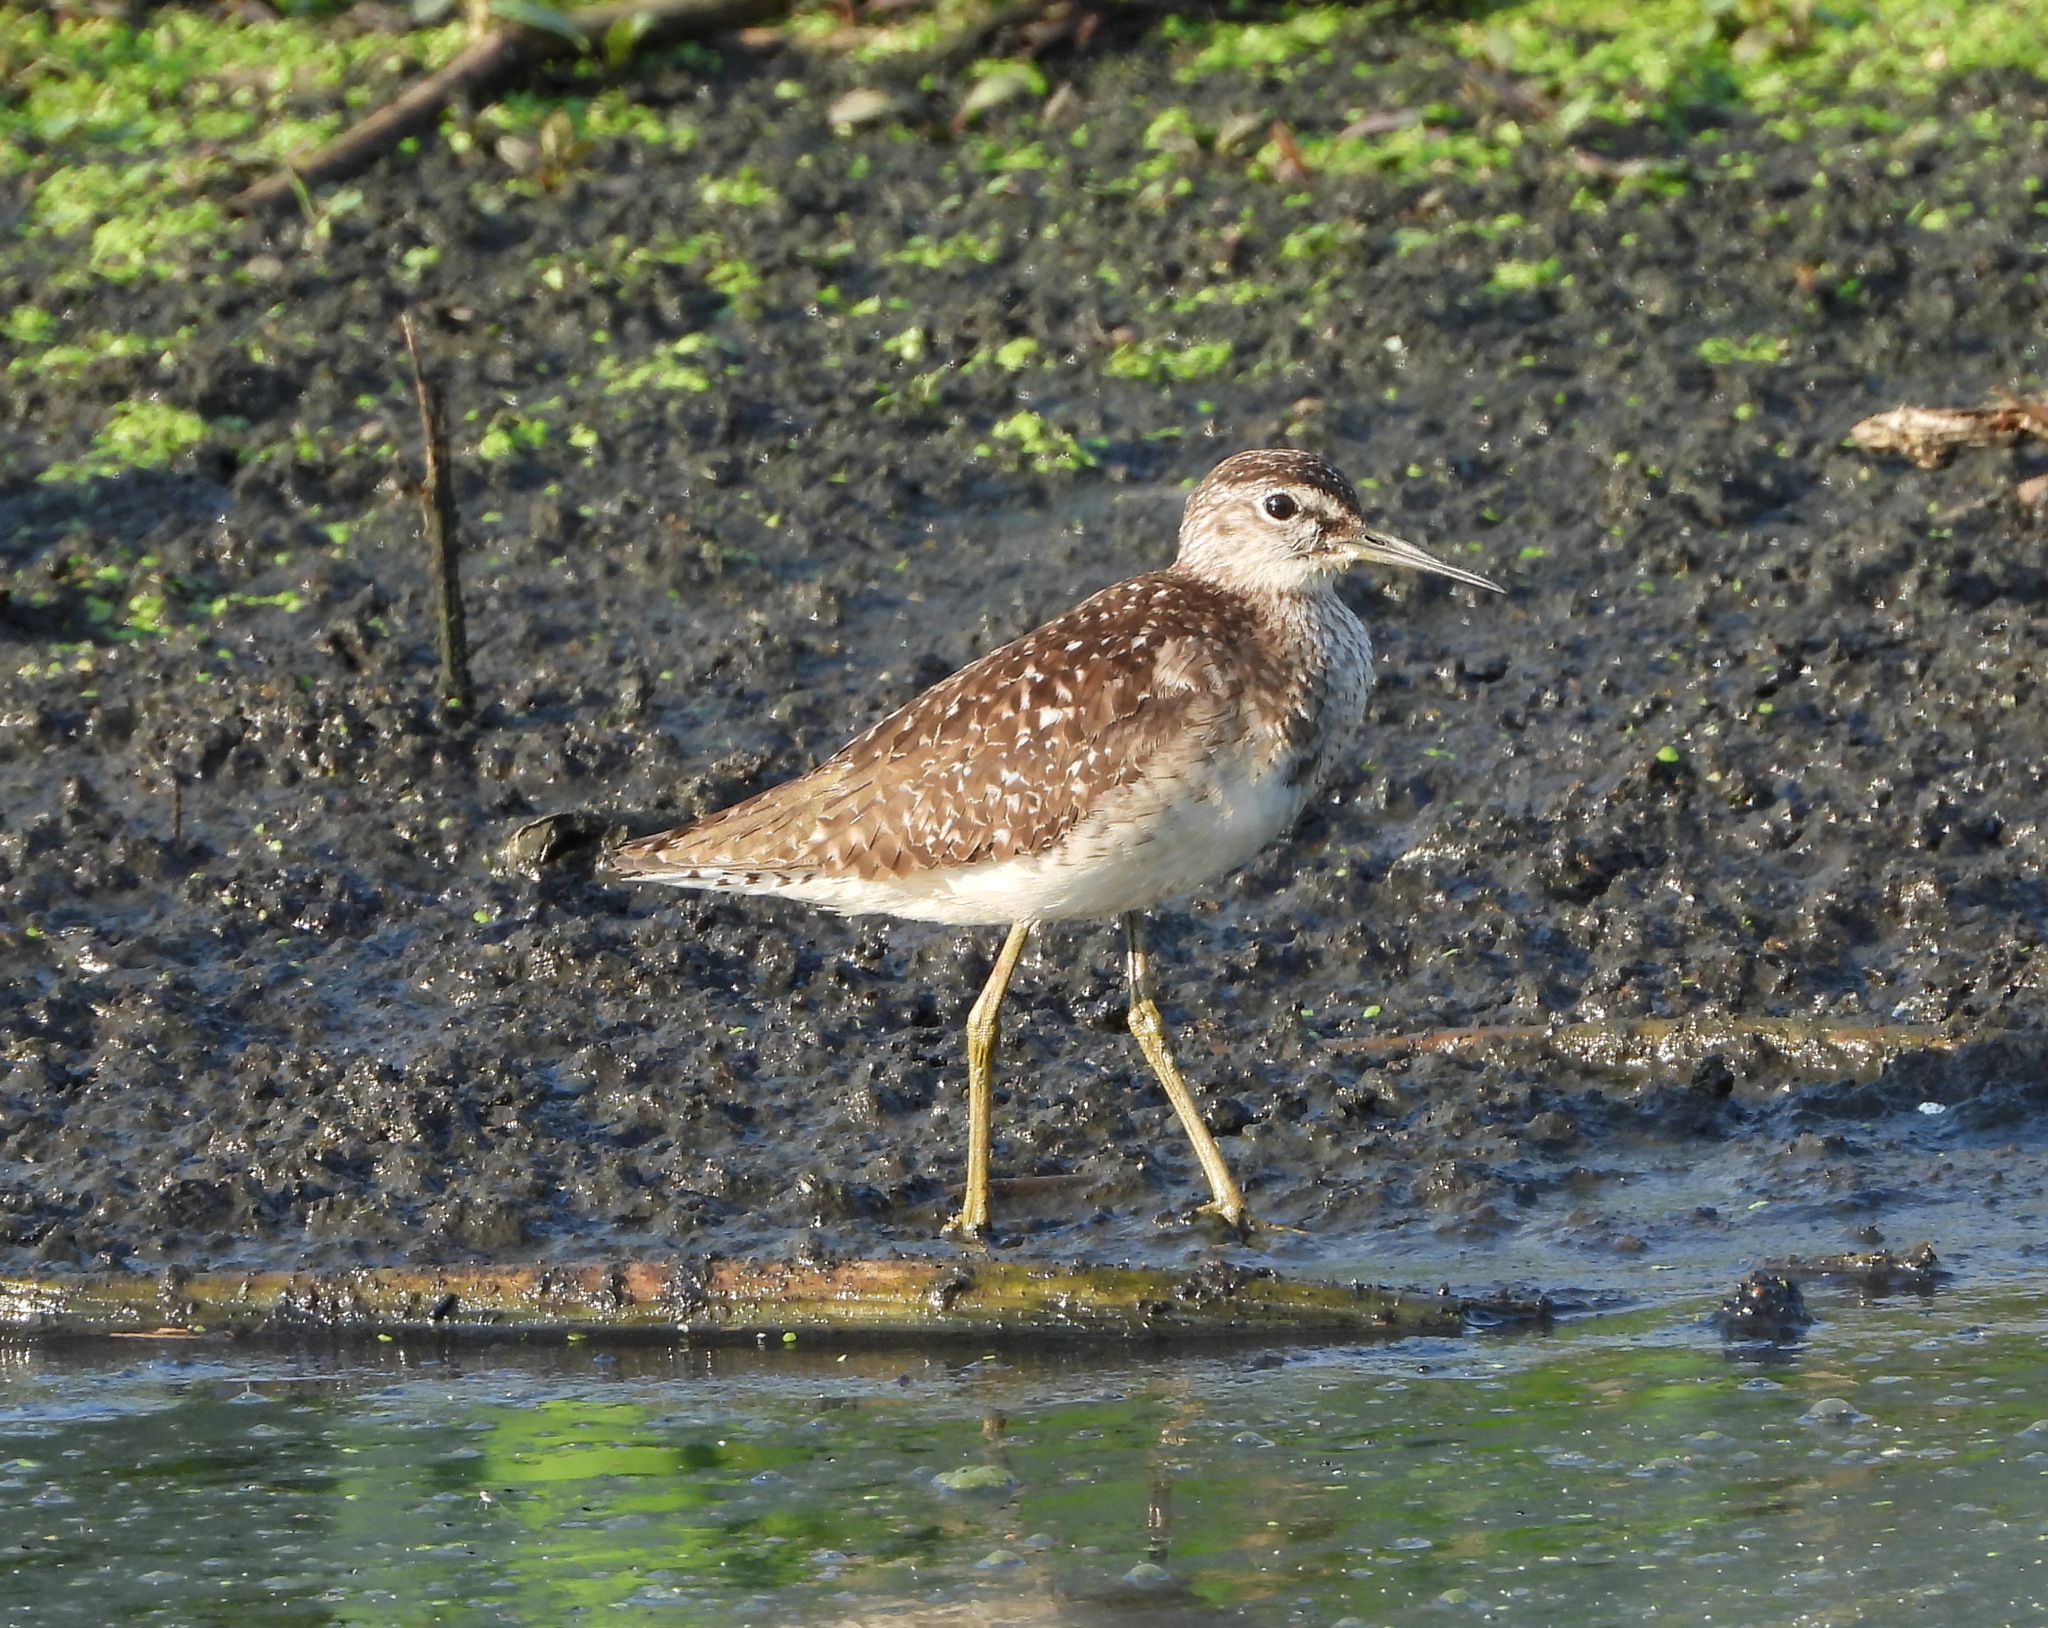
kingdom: Animalia
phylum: Chordata
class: Aves
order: Charadriiformes
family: Scolopacidae
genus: Tringa
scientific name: Tringa glareola
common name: Wood sandpiper
